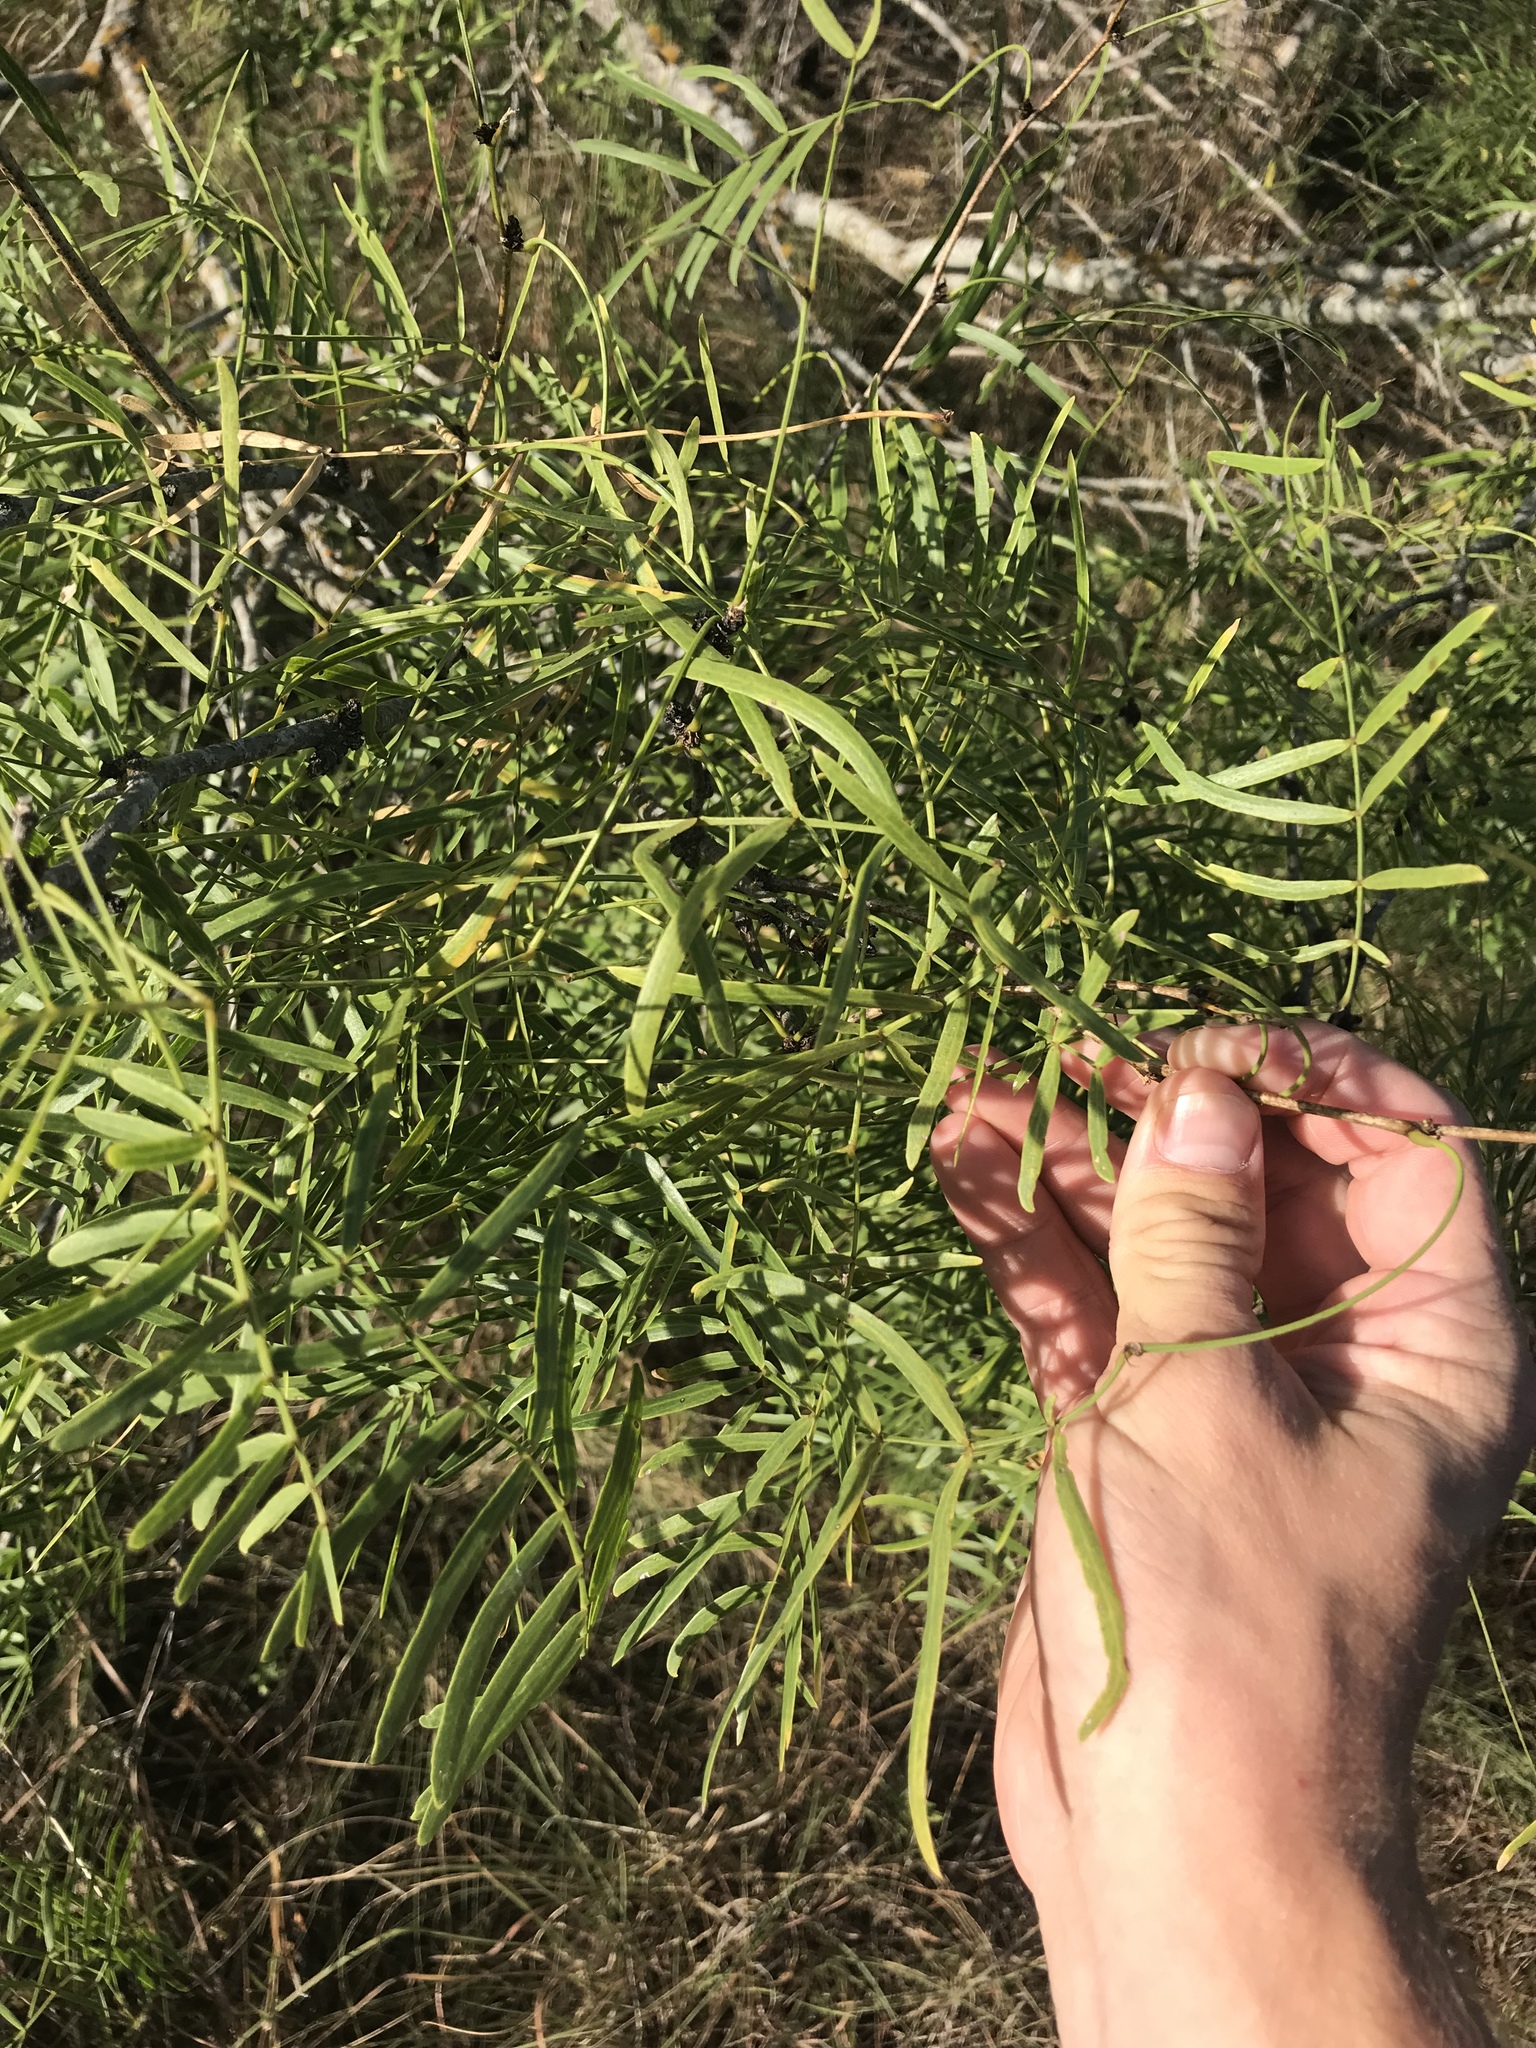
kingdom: Plantae
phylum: Tracheophyta
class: Magnoliopsida
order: Fabales
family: Fabaceae
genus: Prosopis
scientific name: Prosopis glandulosa
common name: Honey mesquite
